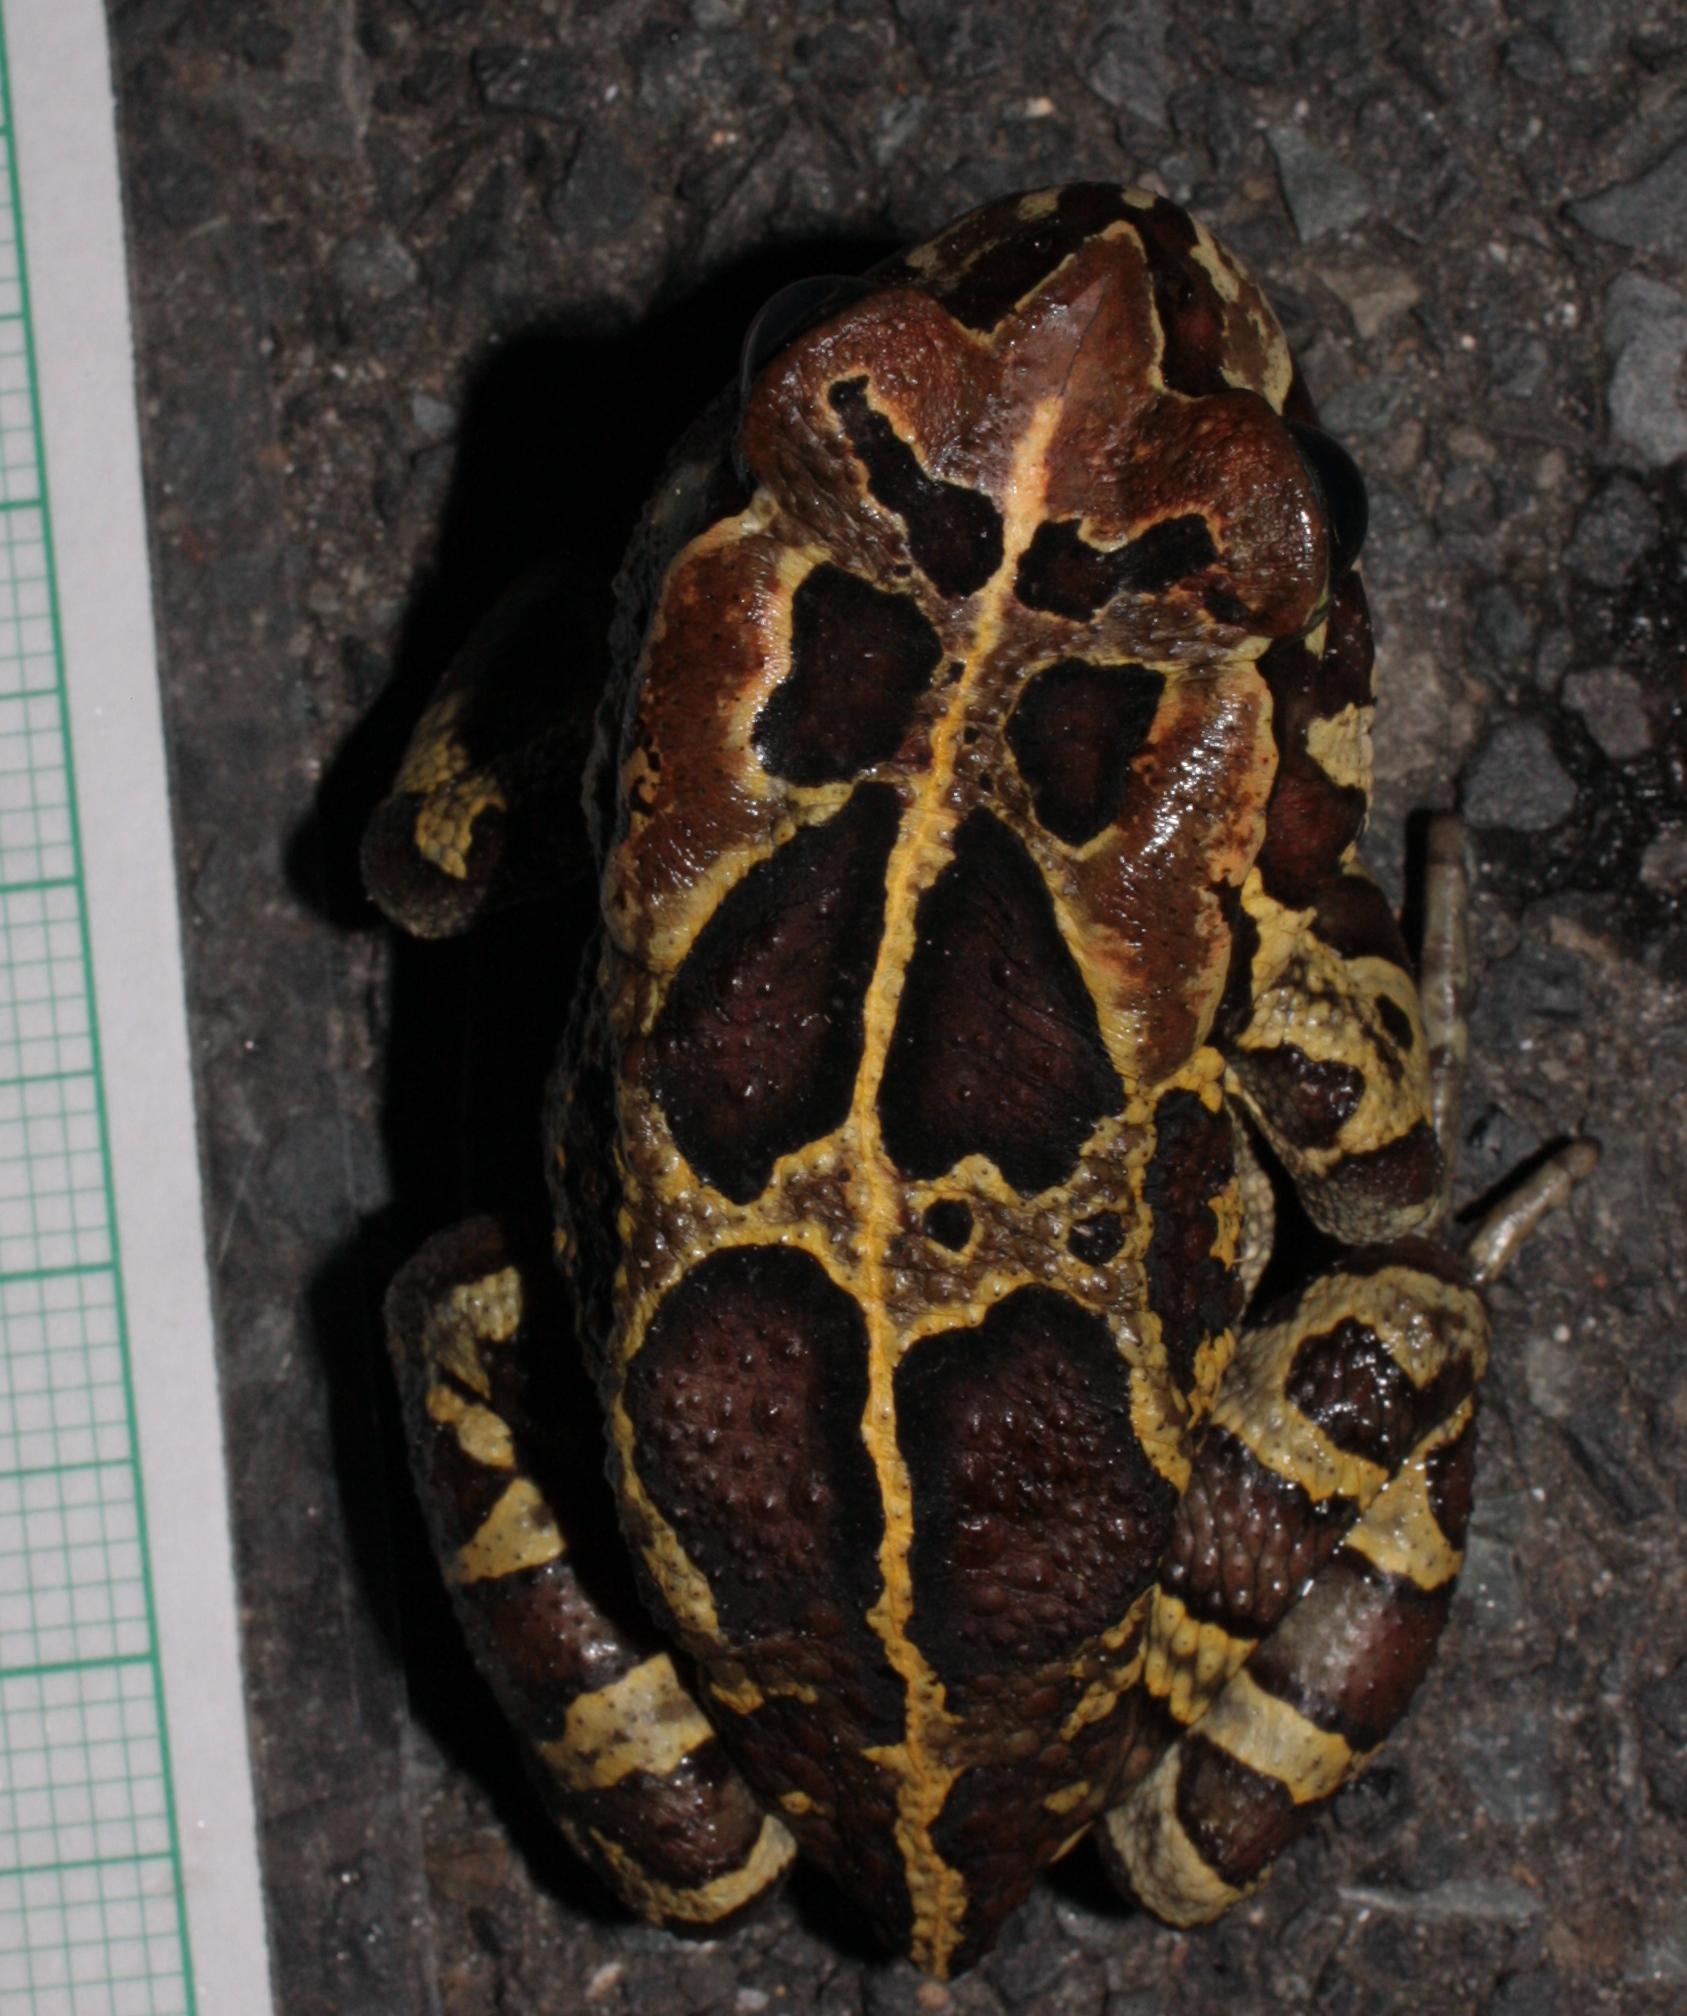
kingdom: Animalia
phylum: Chordata
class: Amphibia
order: Anura
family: Bufonidae
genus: Sclerophrys
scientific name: Sclerophrys pantherina
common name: Panther toad
